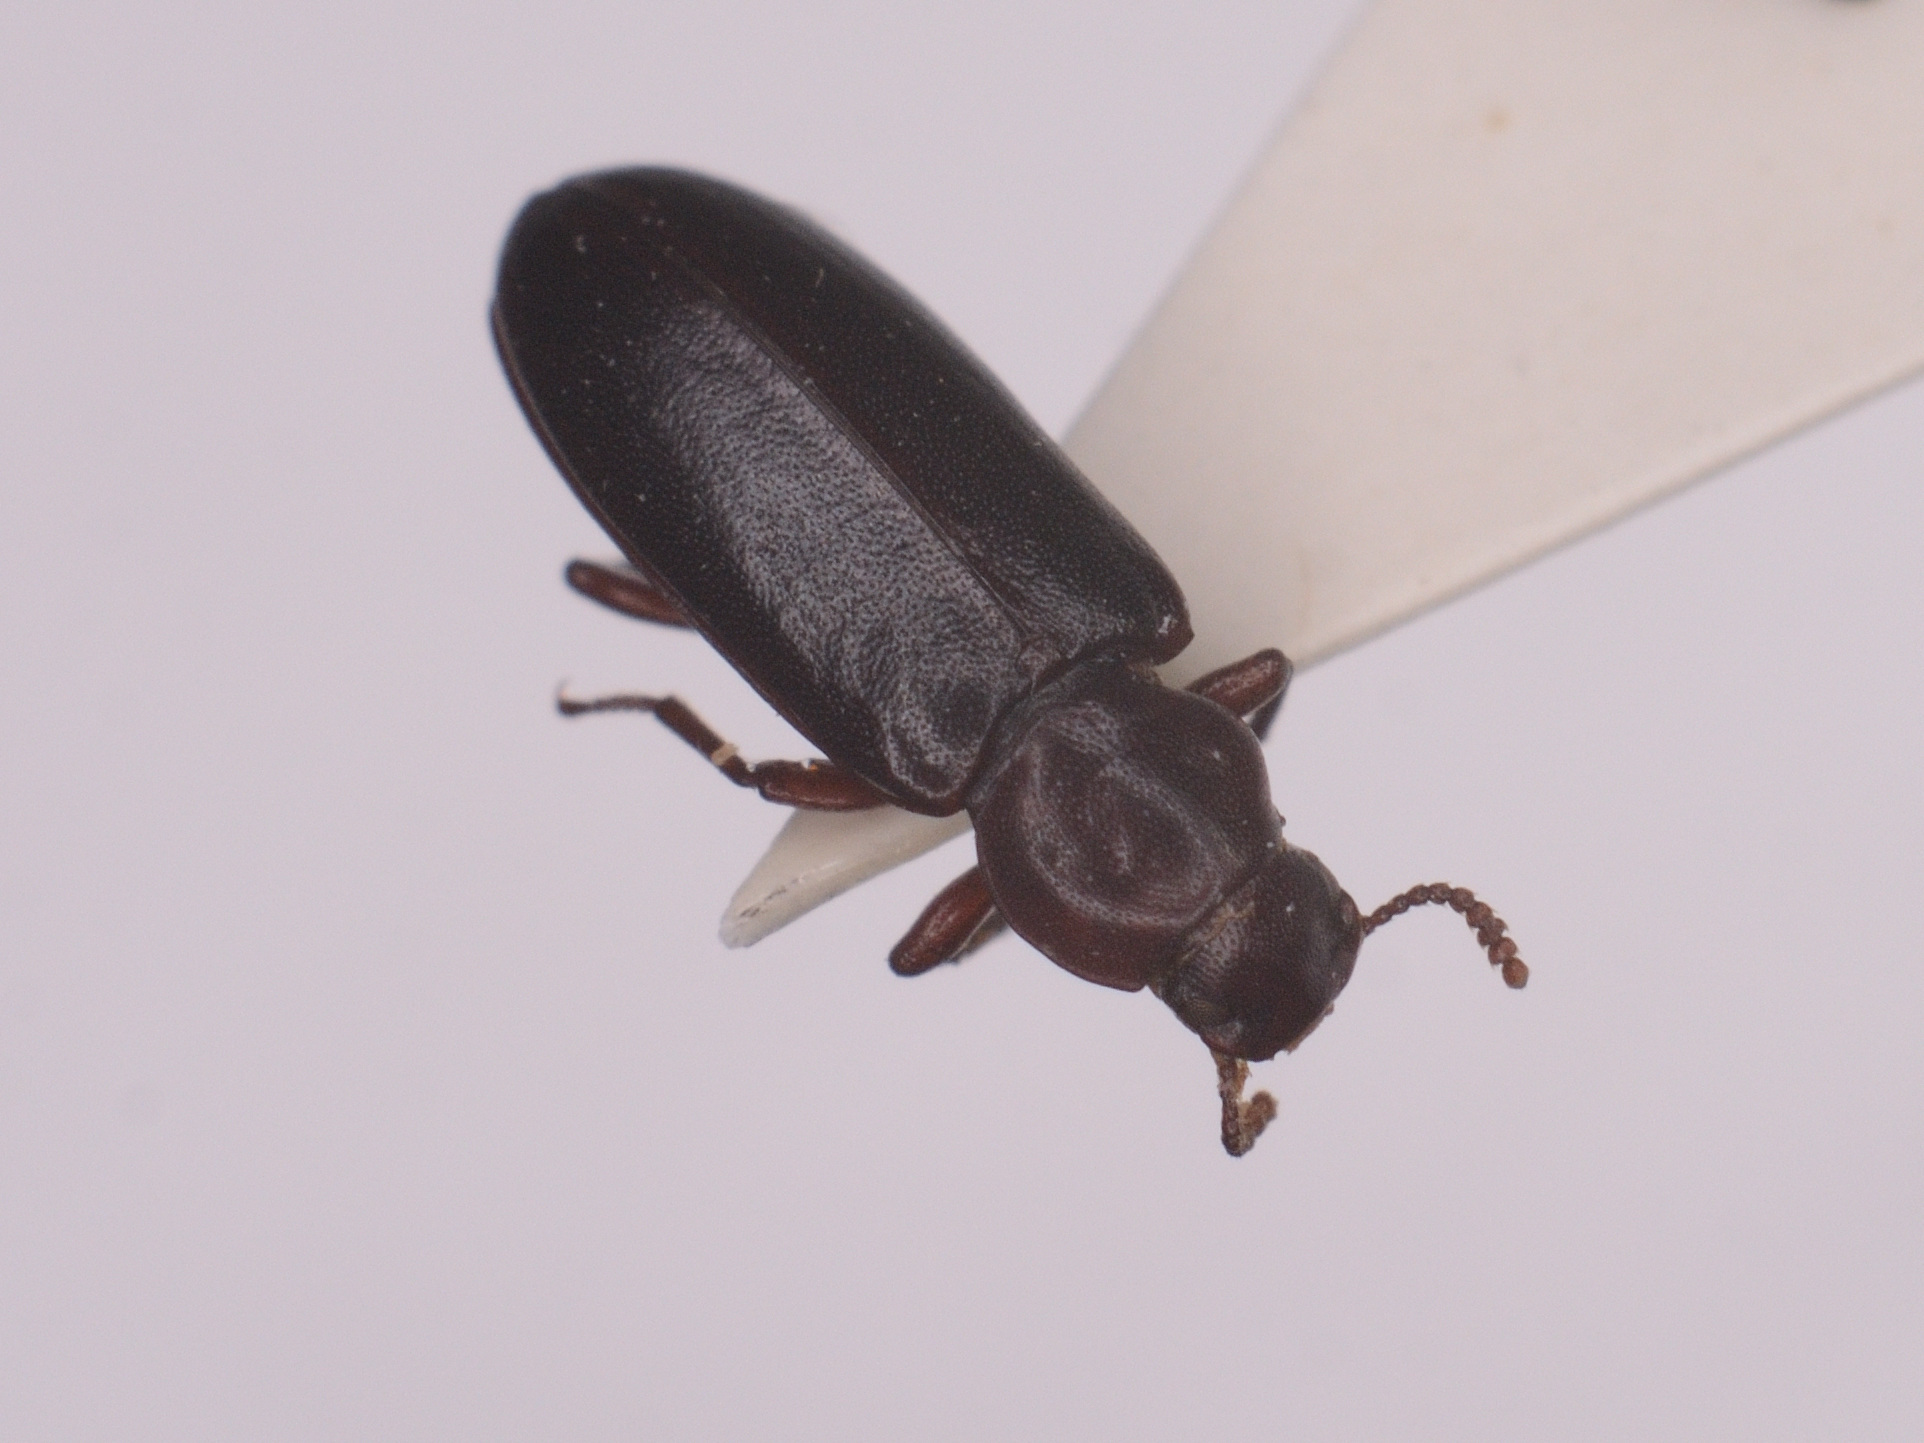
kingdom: Animalia
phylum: Arthropoda
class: Insecta
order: Coleoptera
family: Boridae
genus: Boros
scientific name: Boros schneideri
